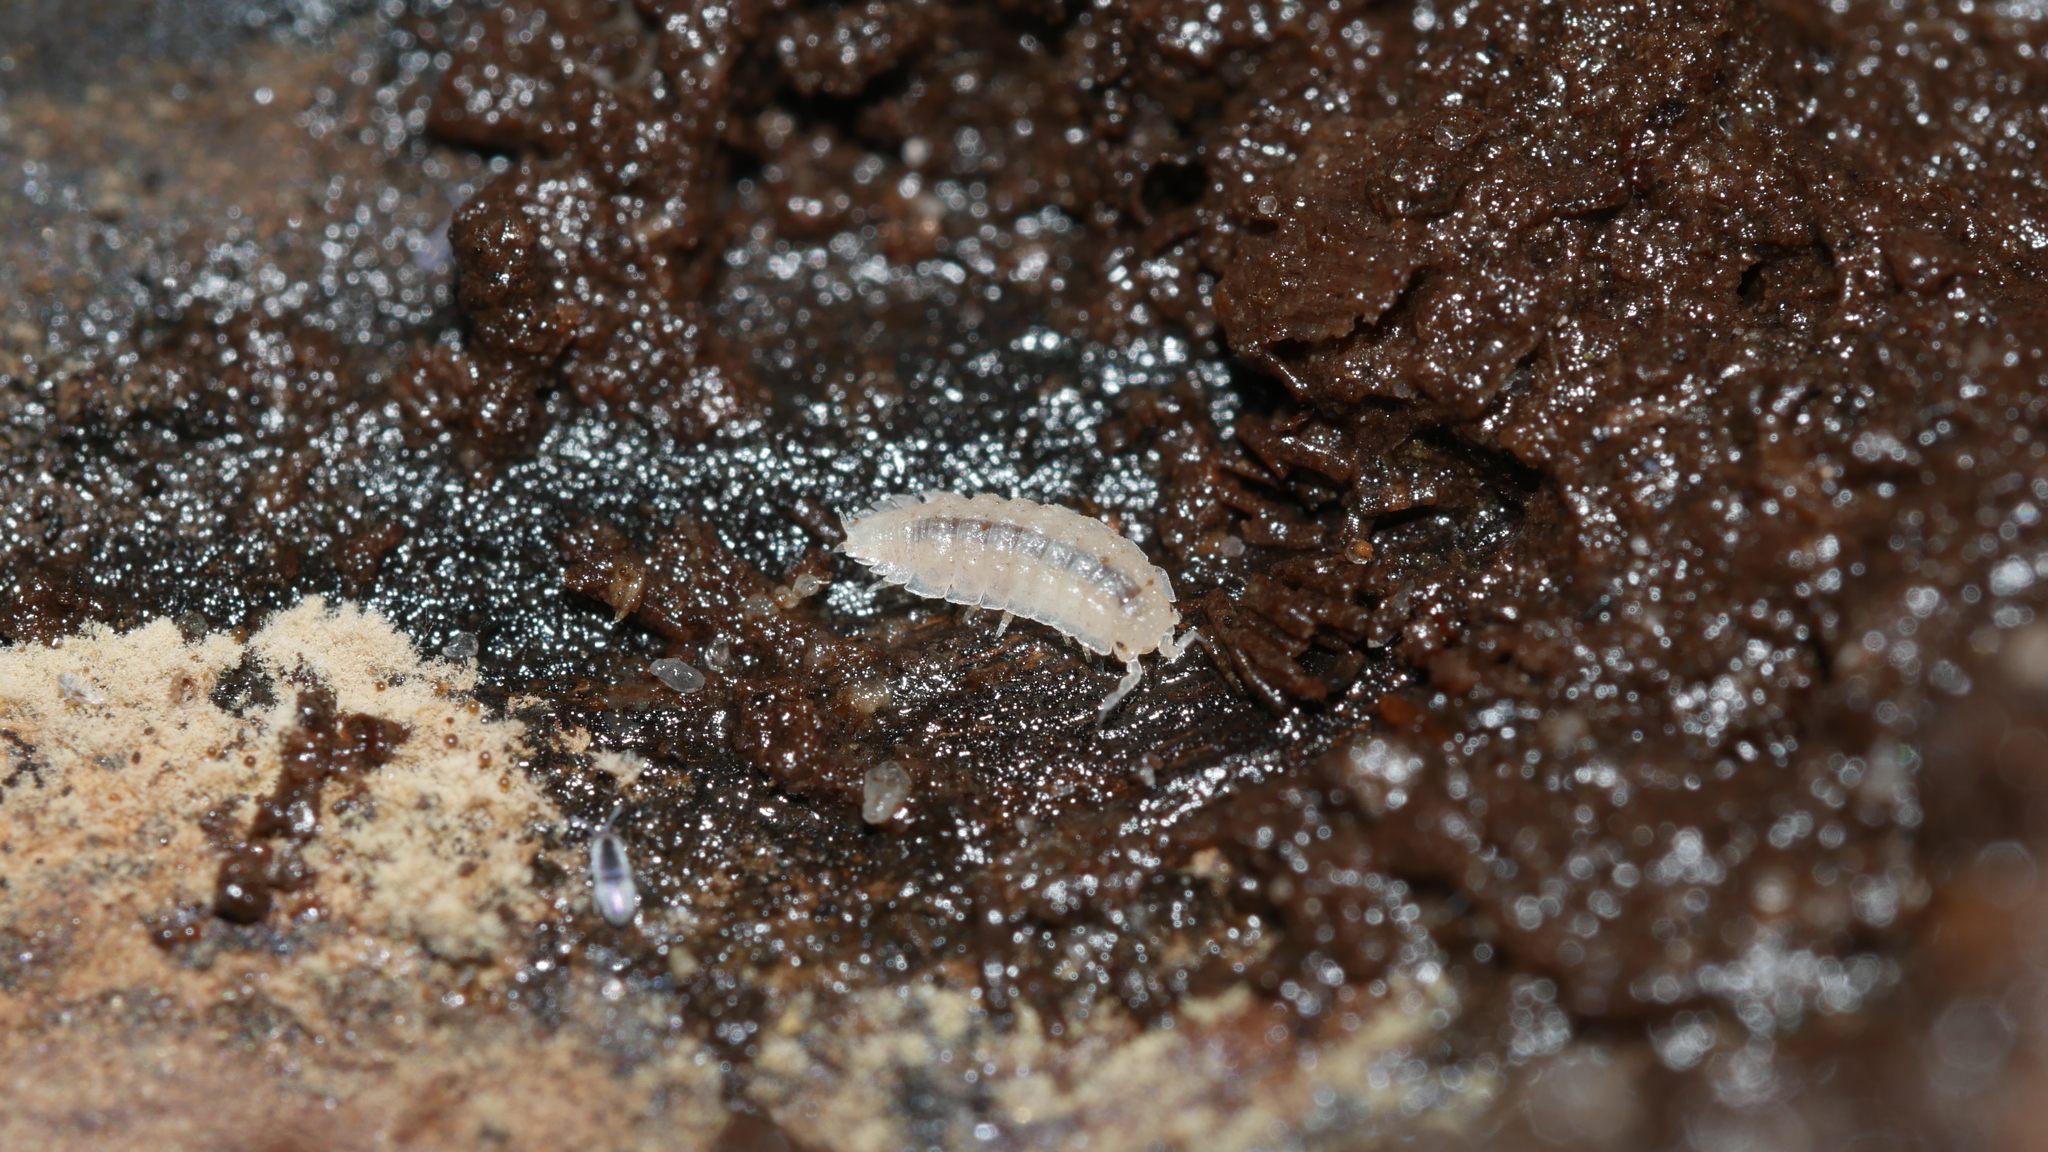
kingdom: Animalia
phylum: Arthropoda
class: Malacostraca
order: Isopoda
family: Trichoniscidae
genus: Haplophthalmus
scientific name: Haplophthalmus danicus
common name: Pillbug
